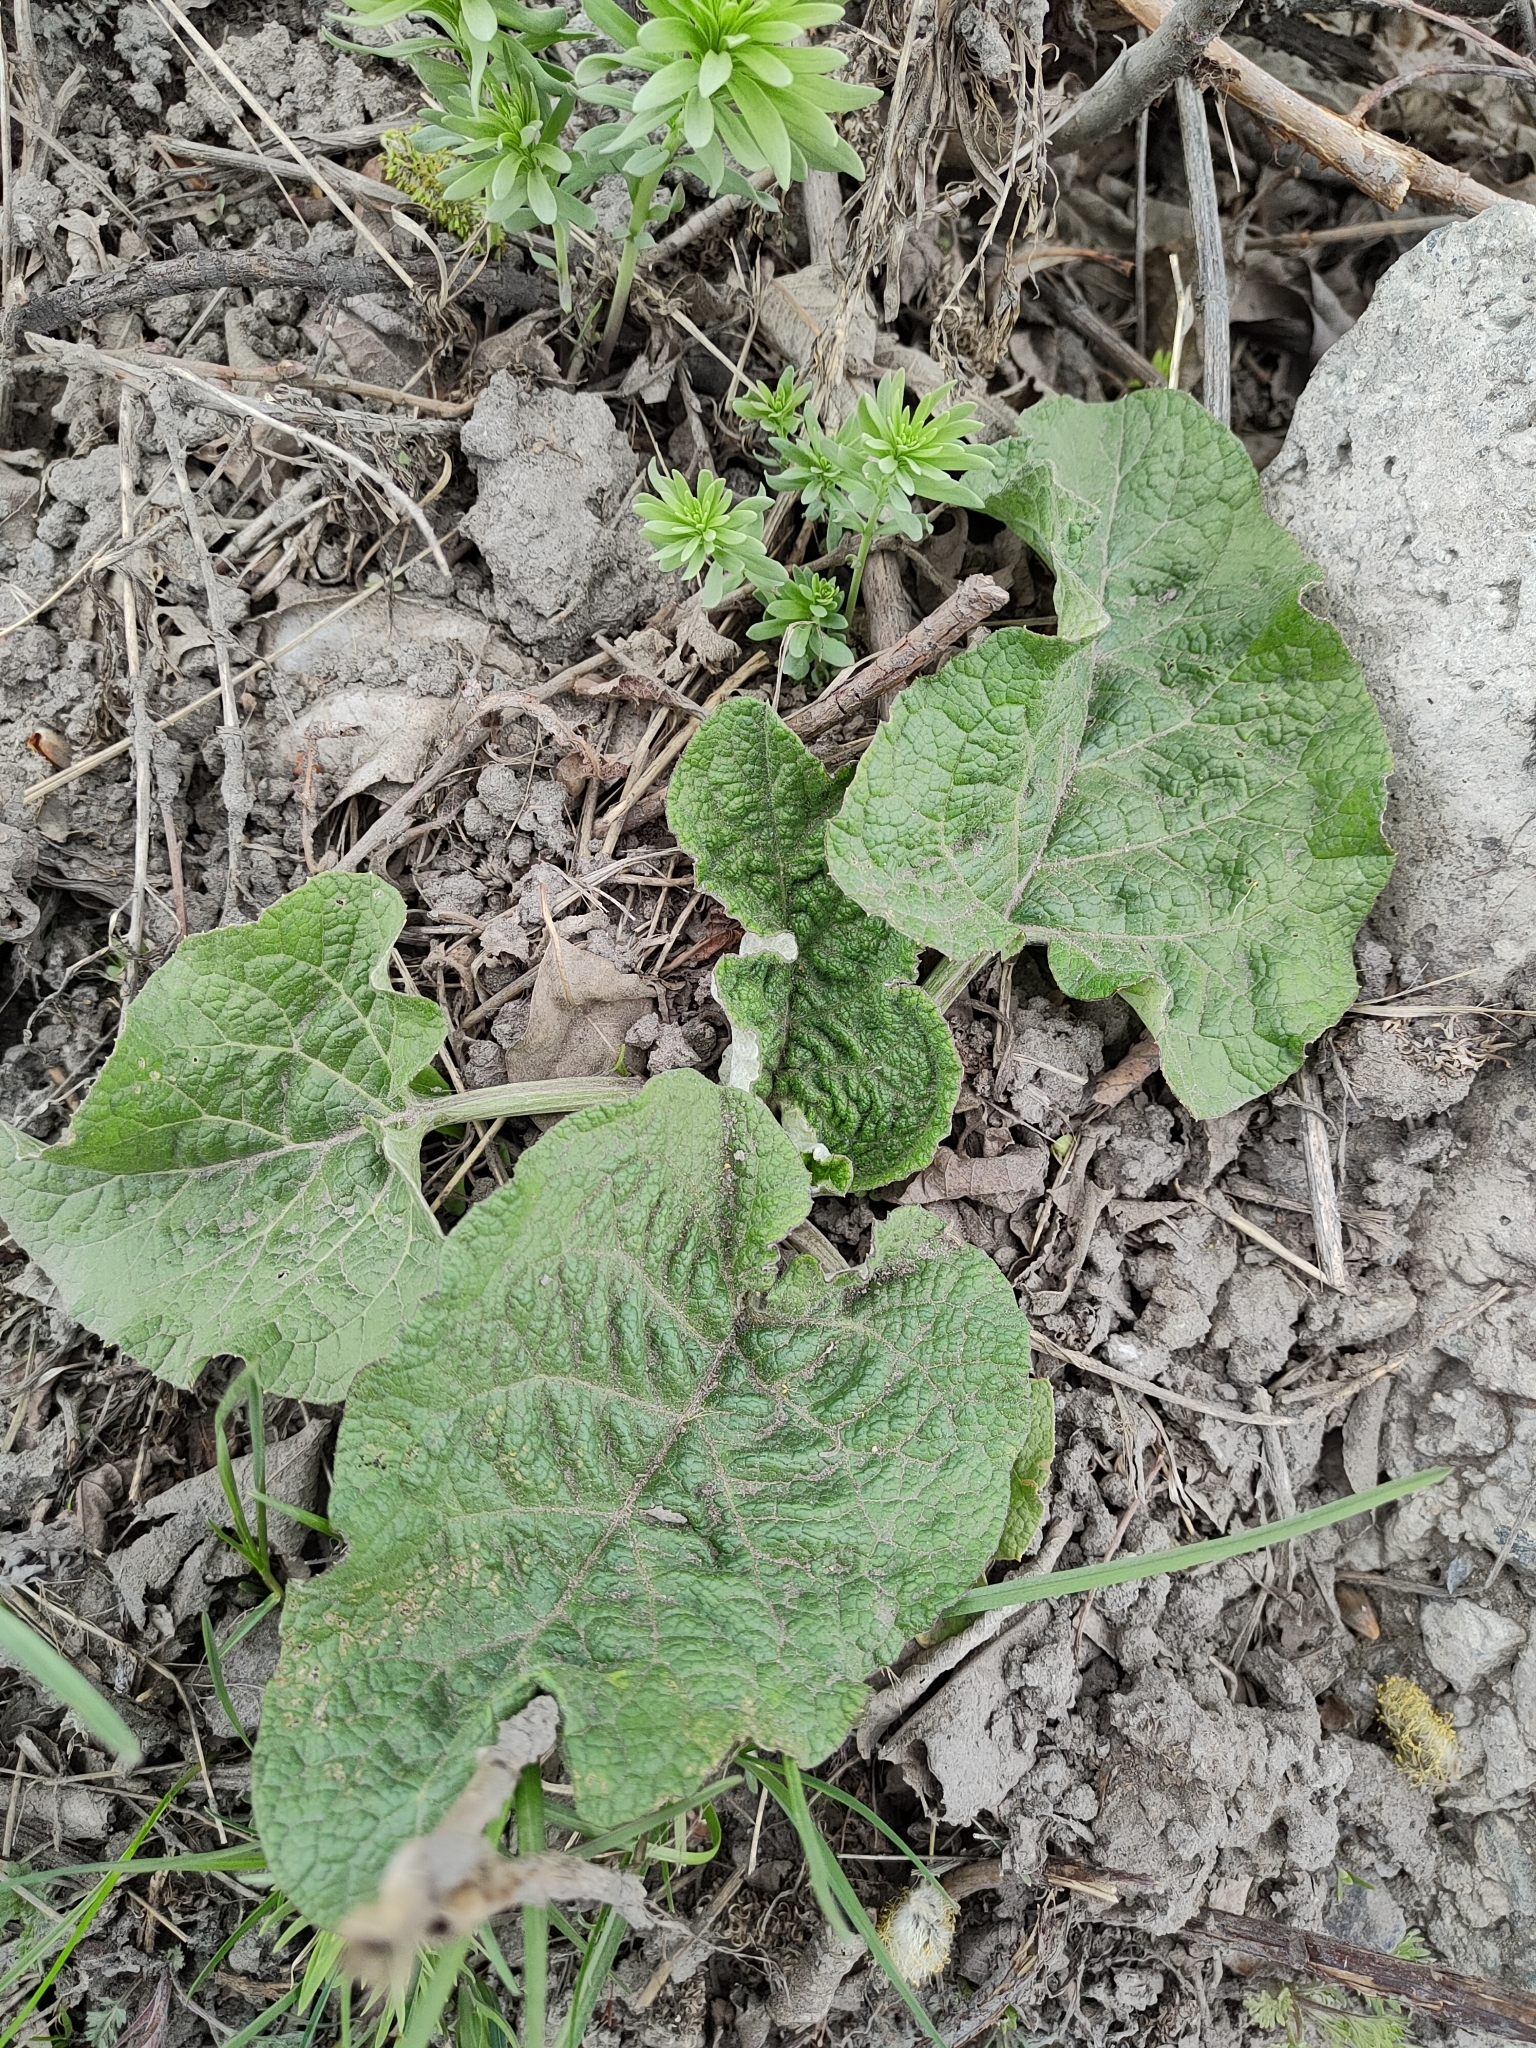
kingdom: Plantae
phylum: Tracheophyta
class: Magnoliopsida
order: Asterales
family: Asteraceae
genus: Arctium
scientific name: Arctium tomentosum
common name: Woolly burdock
